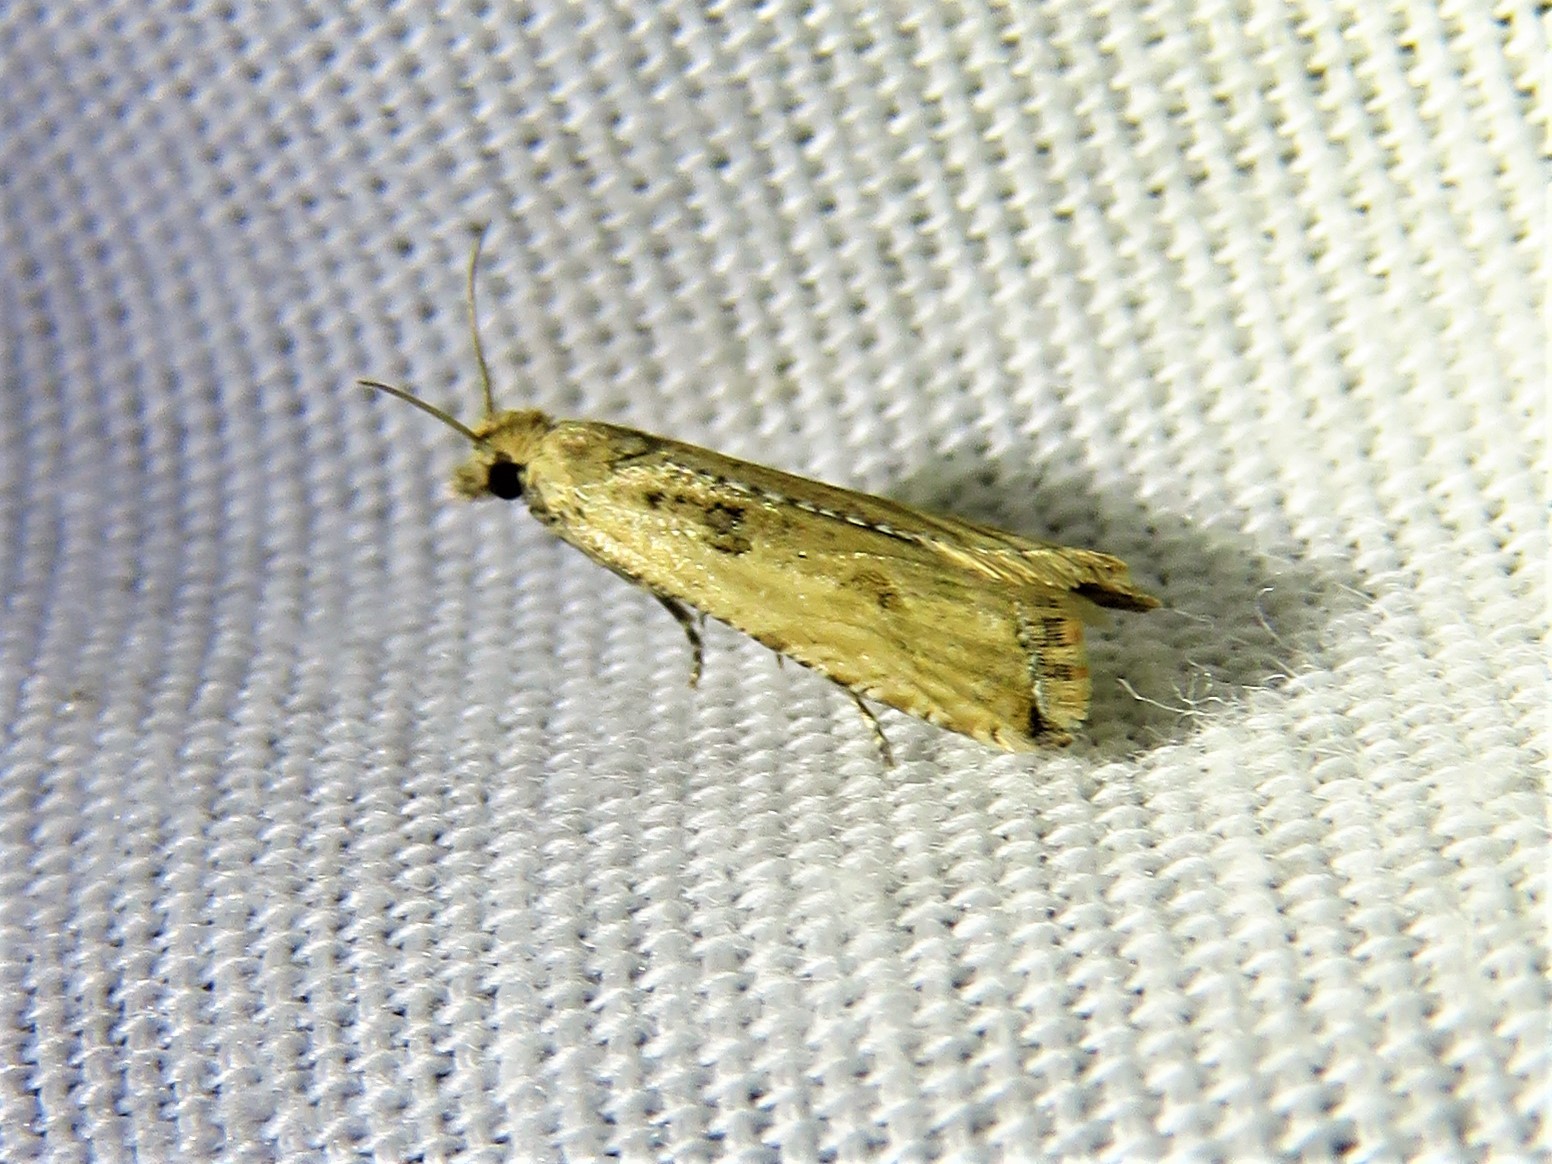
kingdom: Animalia
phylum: Arthropoda
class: Insecta
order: Lepidoptera
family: Tortricidae
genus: Bactra
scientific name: Bactra verutana
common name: Javelin moth
